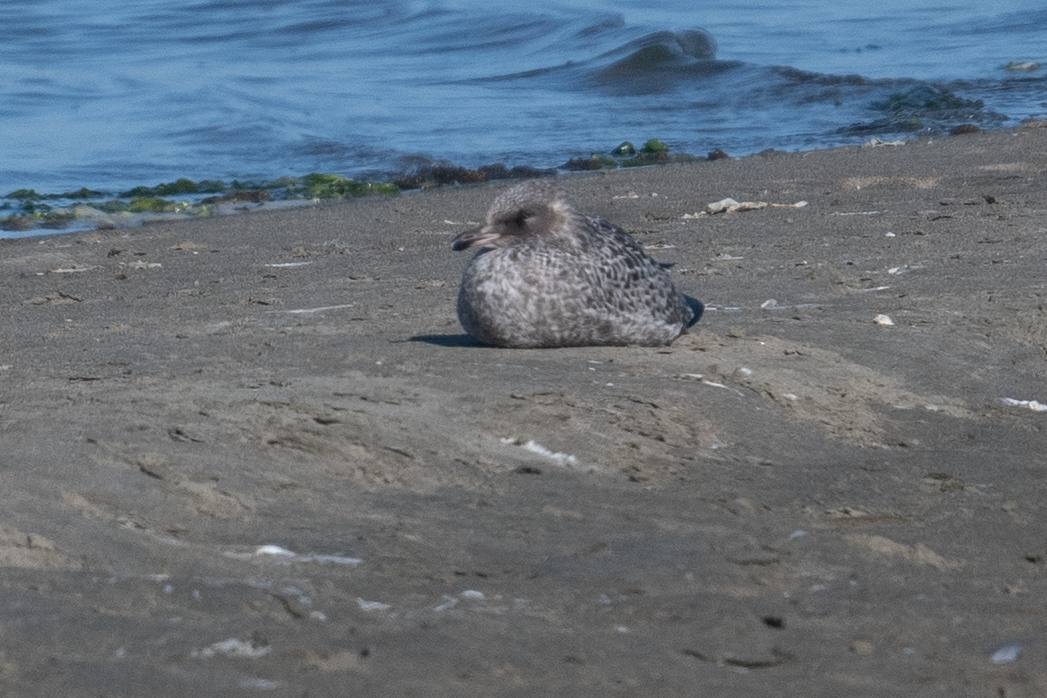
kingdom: Animalia
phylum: Chordata
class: Aves
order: Charadriiformes
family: Laridae
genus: Larus
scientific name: Larus occidentalis
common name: Western gull
